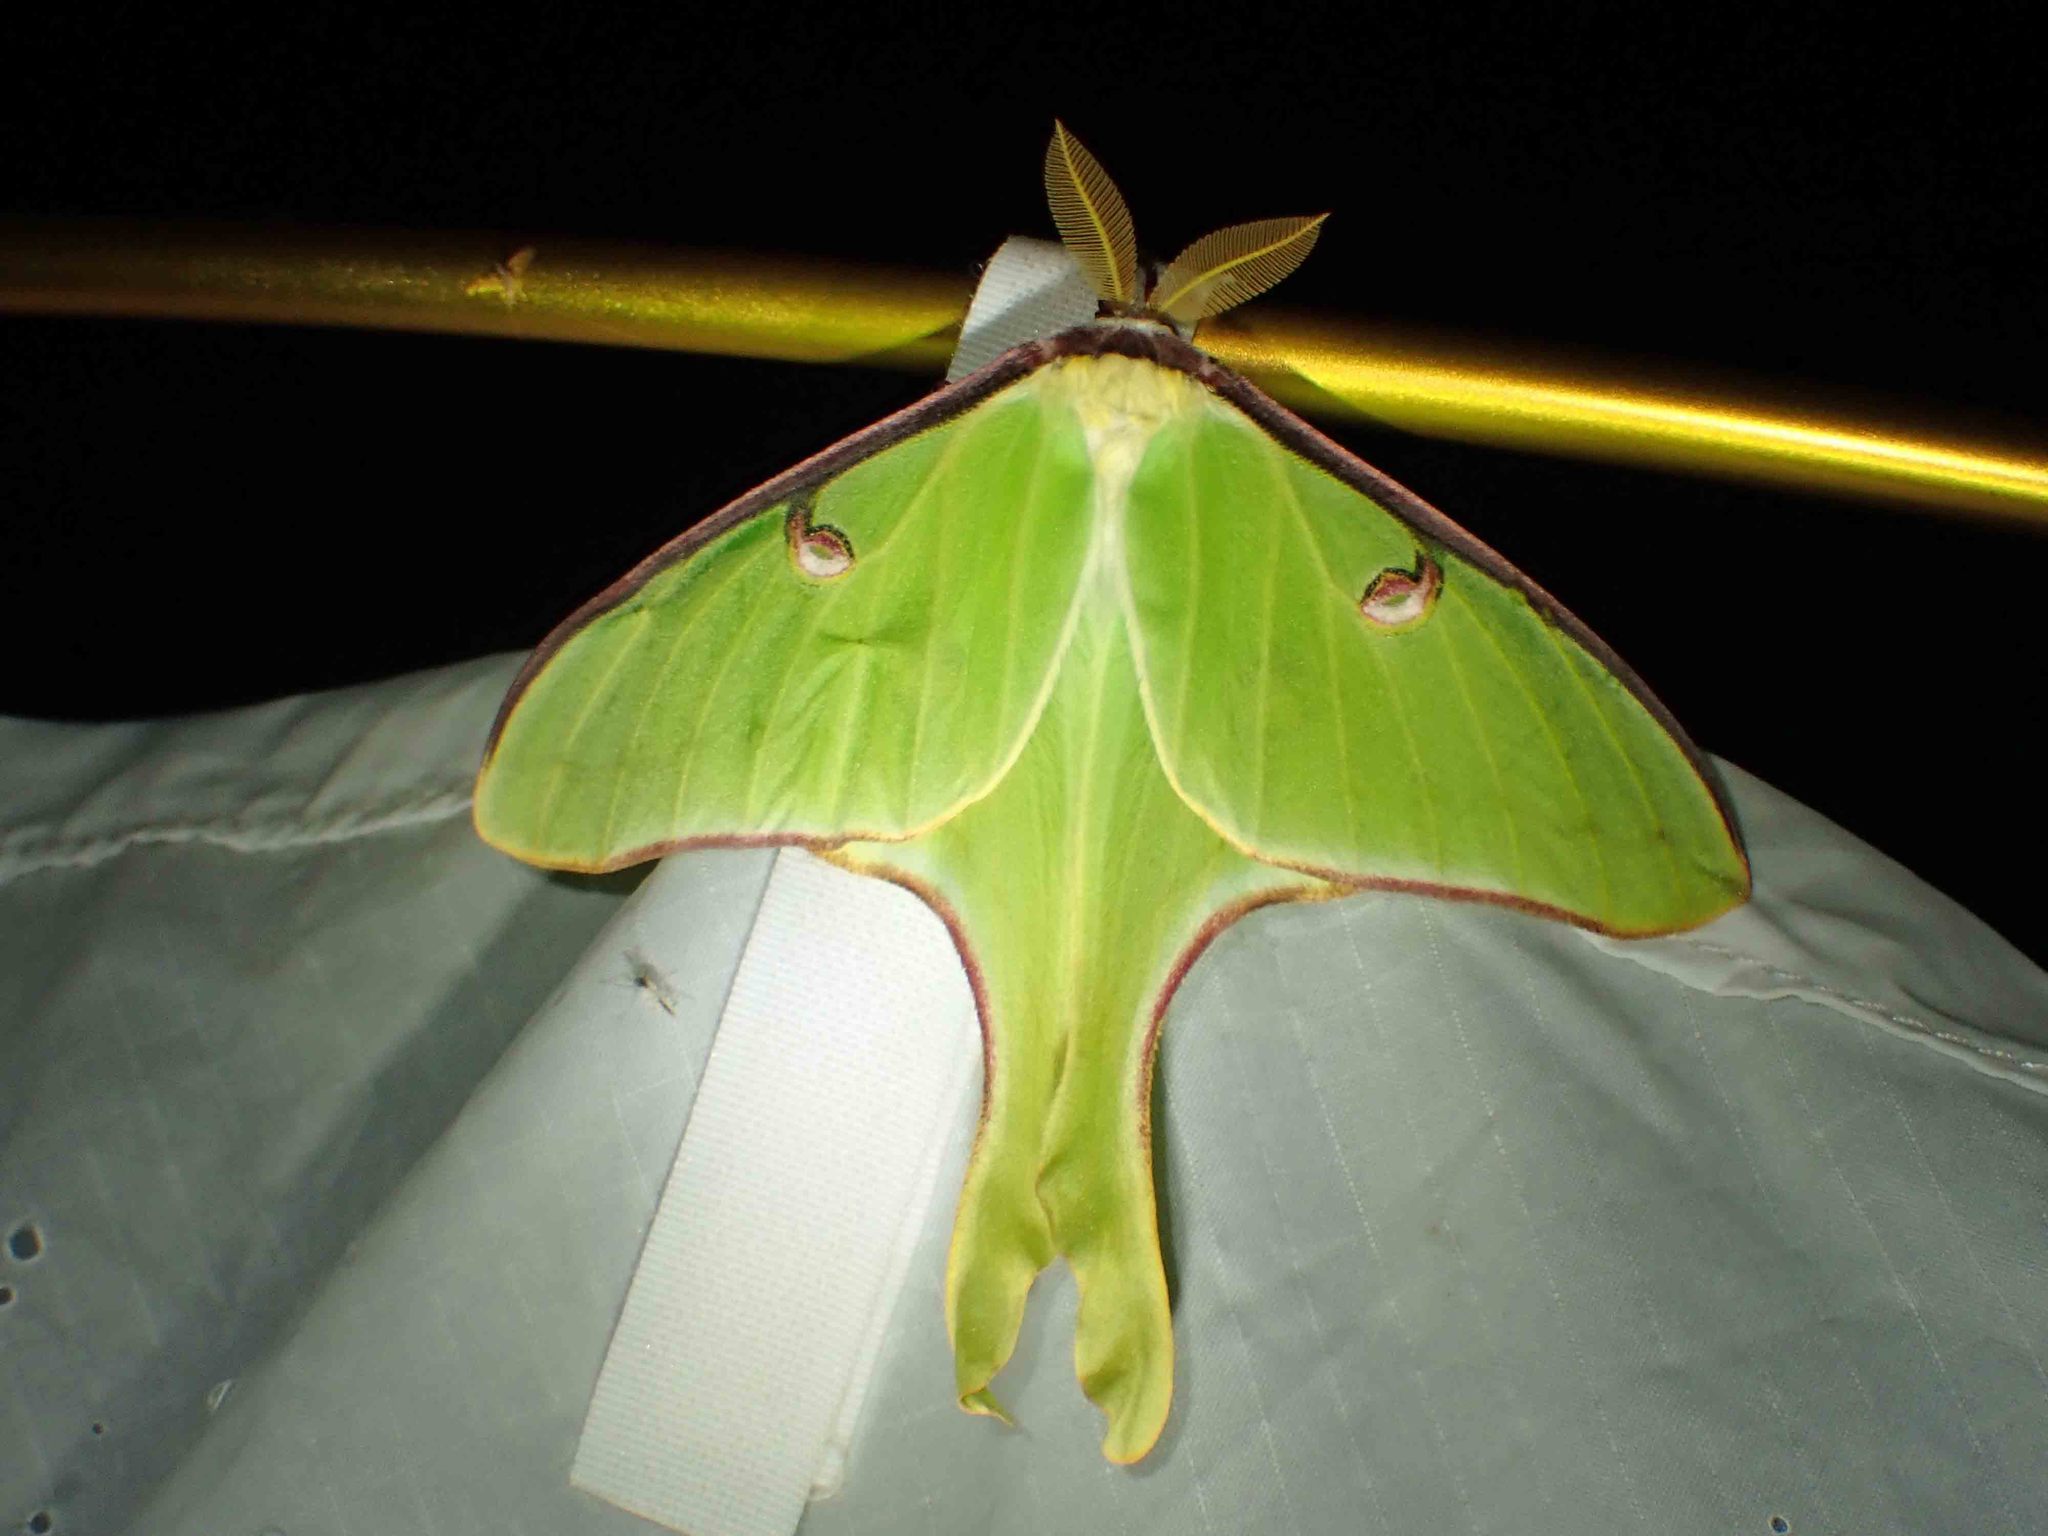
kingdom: Animalia
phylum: Arthropoda
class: Insecta
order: Lepidoptera
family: Saturniidae
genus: Actias
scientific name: Actias luna
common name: Luna moth
